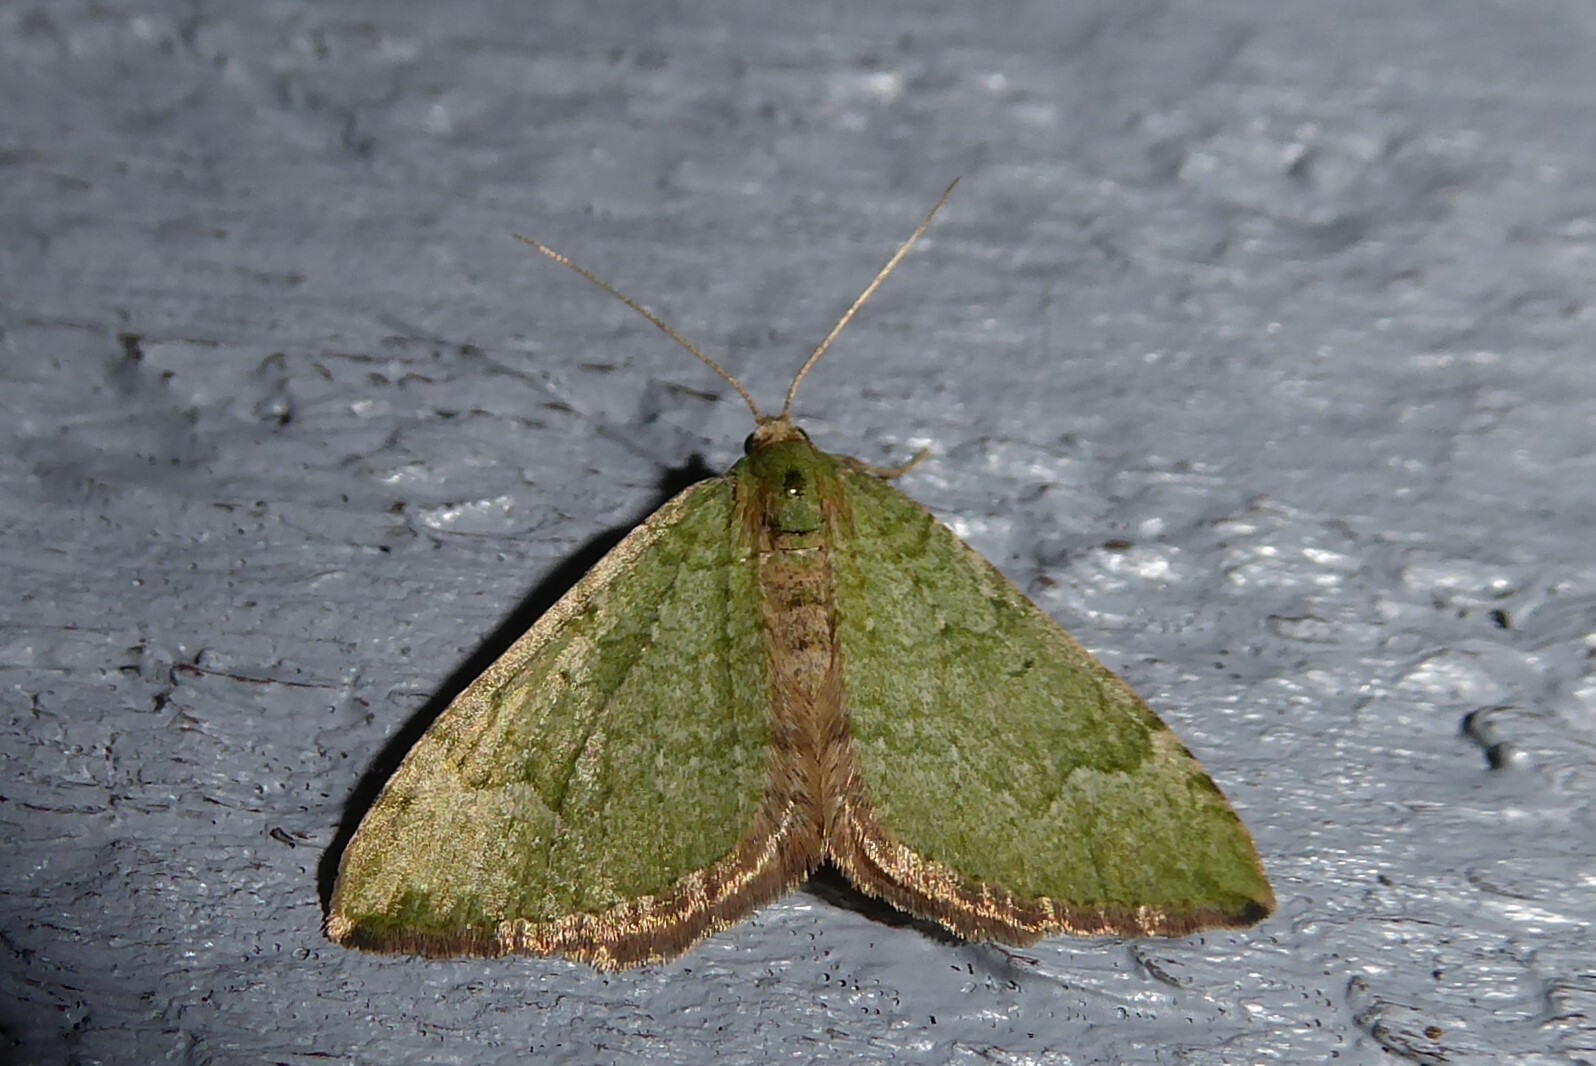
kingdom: Animalia
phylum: Arthropoda
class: Insecta
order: Lepidoptera
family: Geometridae
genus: Epyaxa
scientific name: Epyaxa rosearia
